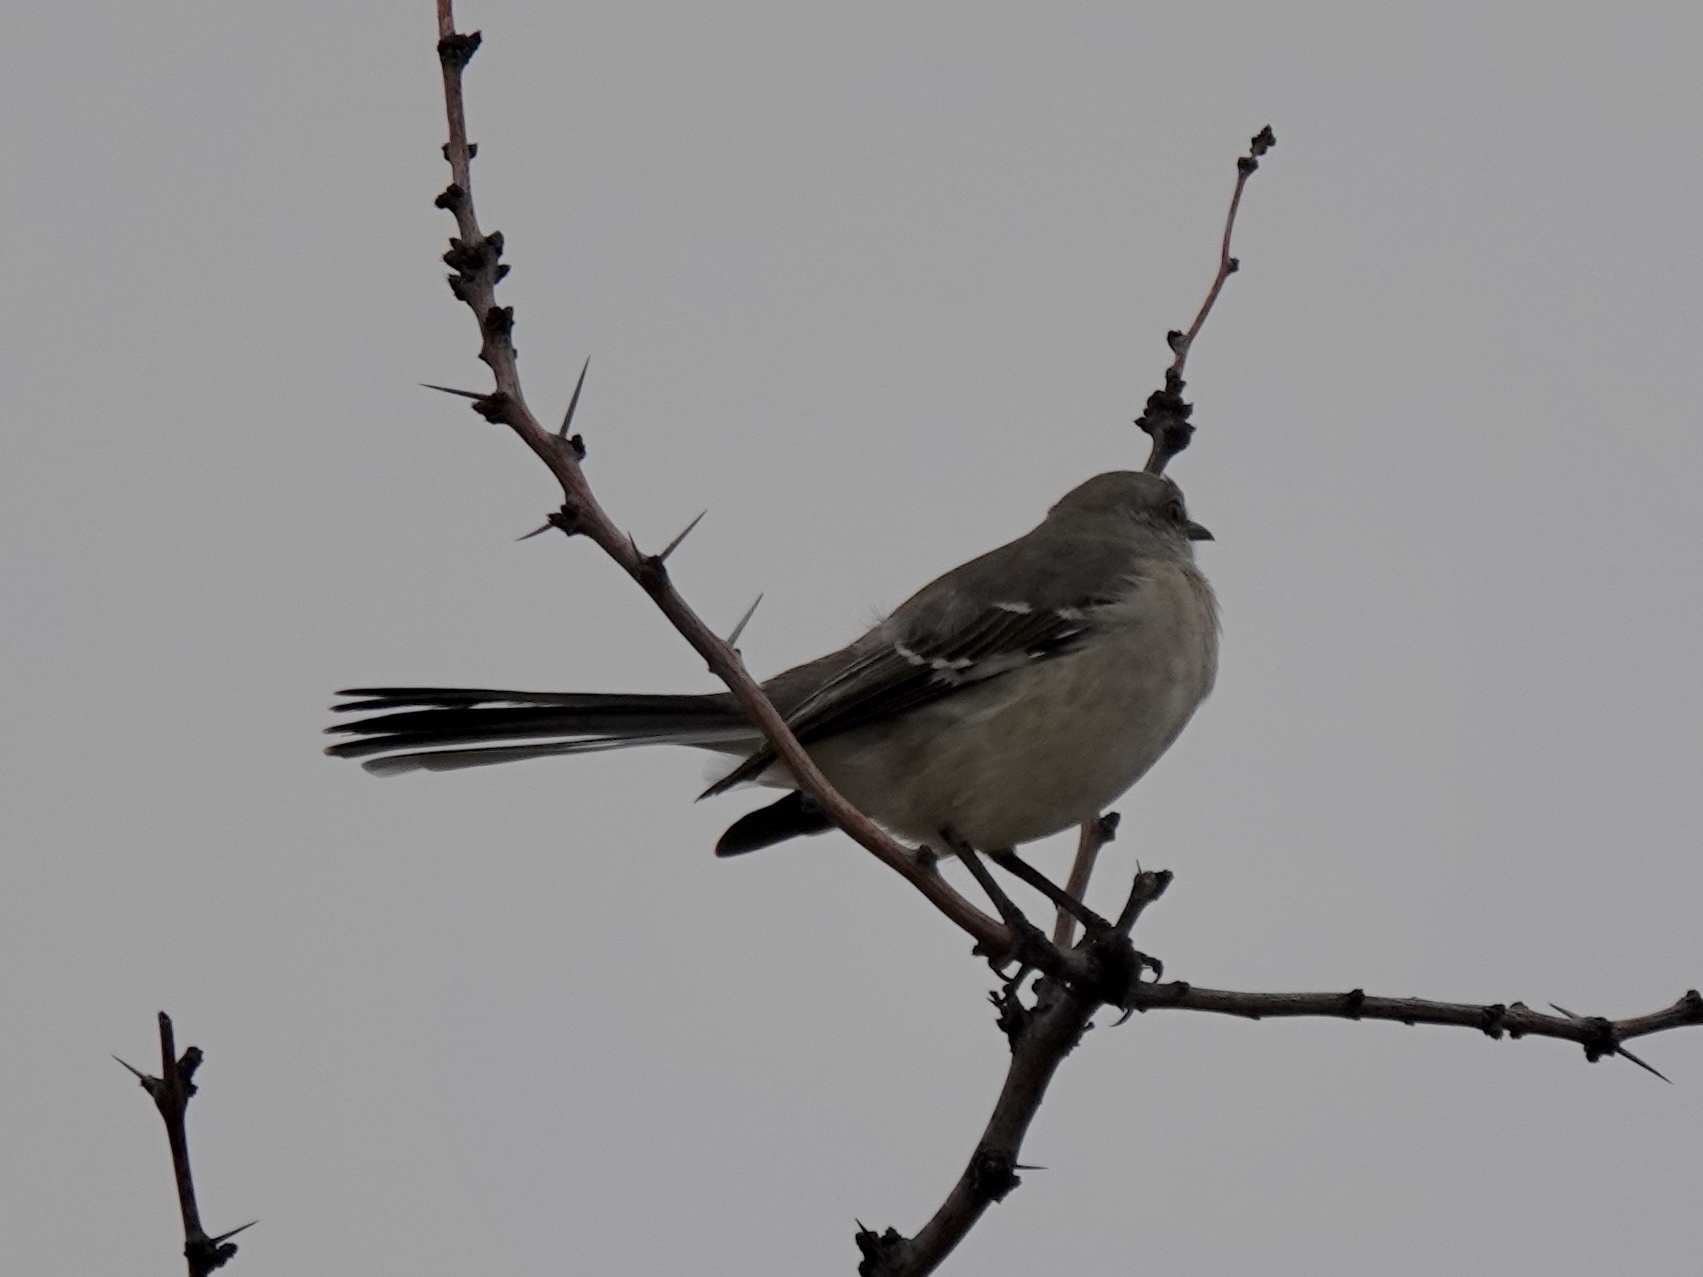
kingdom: Animalia
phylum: Chordata
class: Aves
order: Passeriformes
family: Mimidae
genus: Mimus
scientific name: Mimus polyglottos
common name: Northern mockingbird
